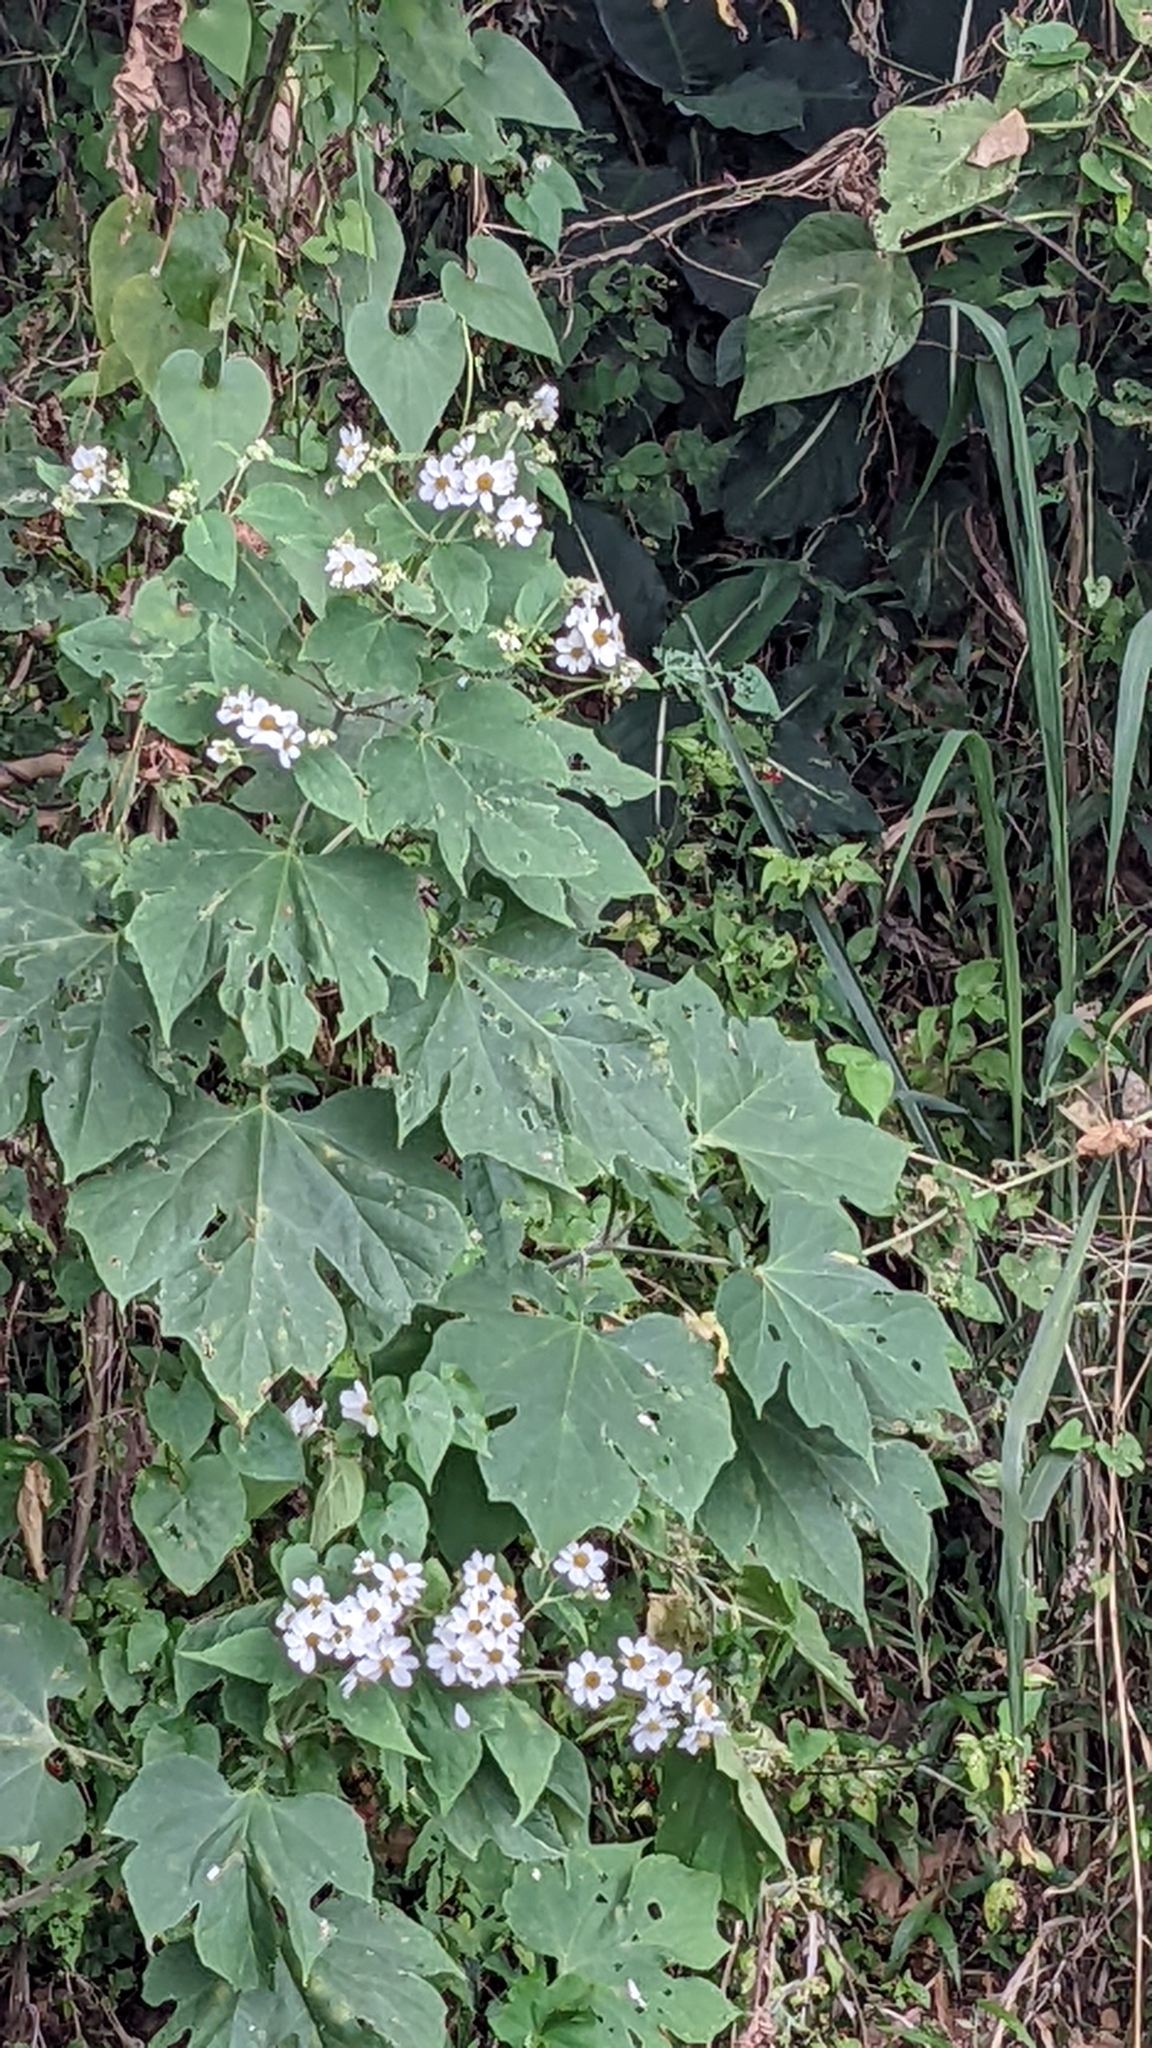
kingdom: Plantae
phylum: Tracheophyta
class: Magnoliopsida
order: Asterales
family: Asteraceae
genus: Montanoa
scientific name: Montanoa hibiscifolia
